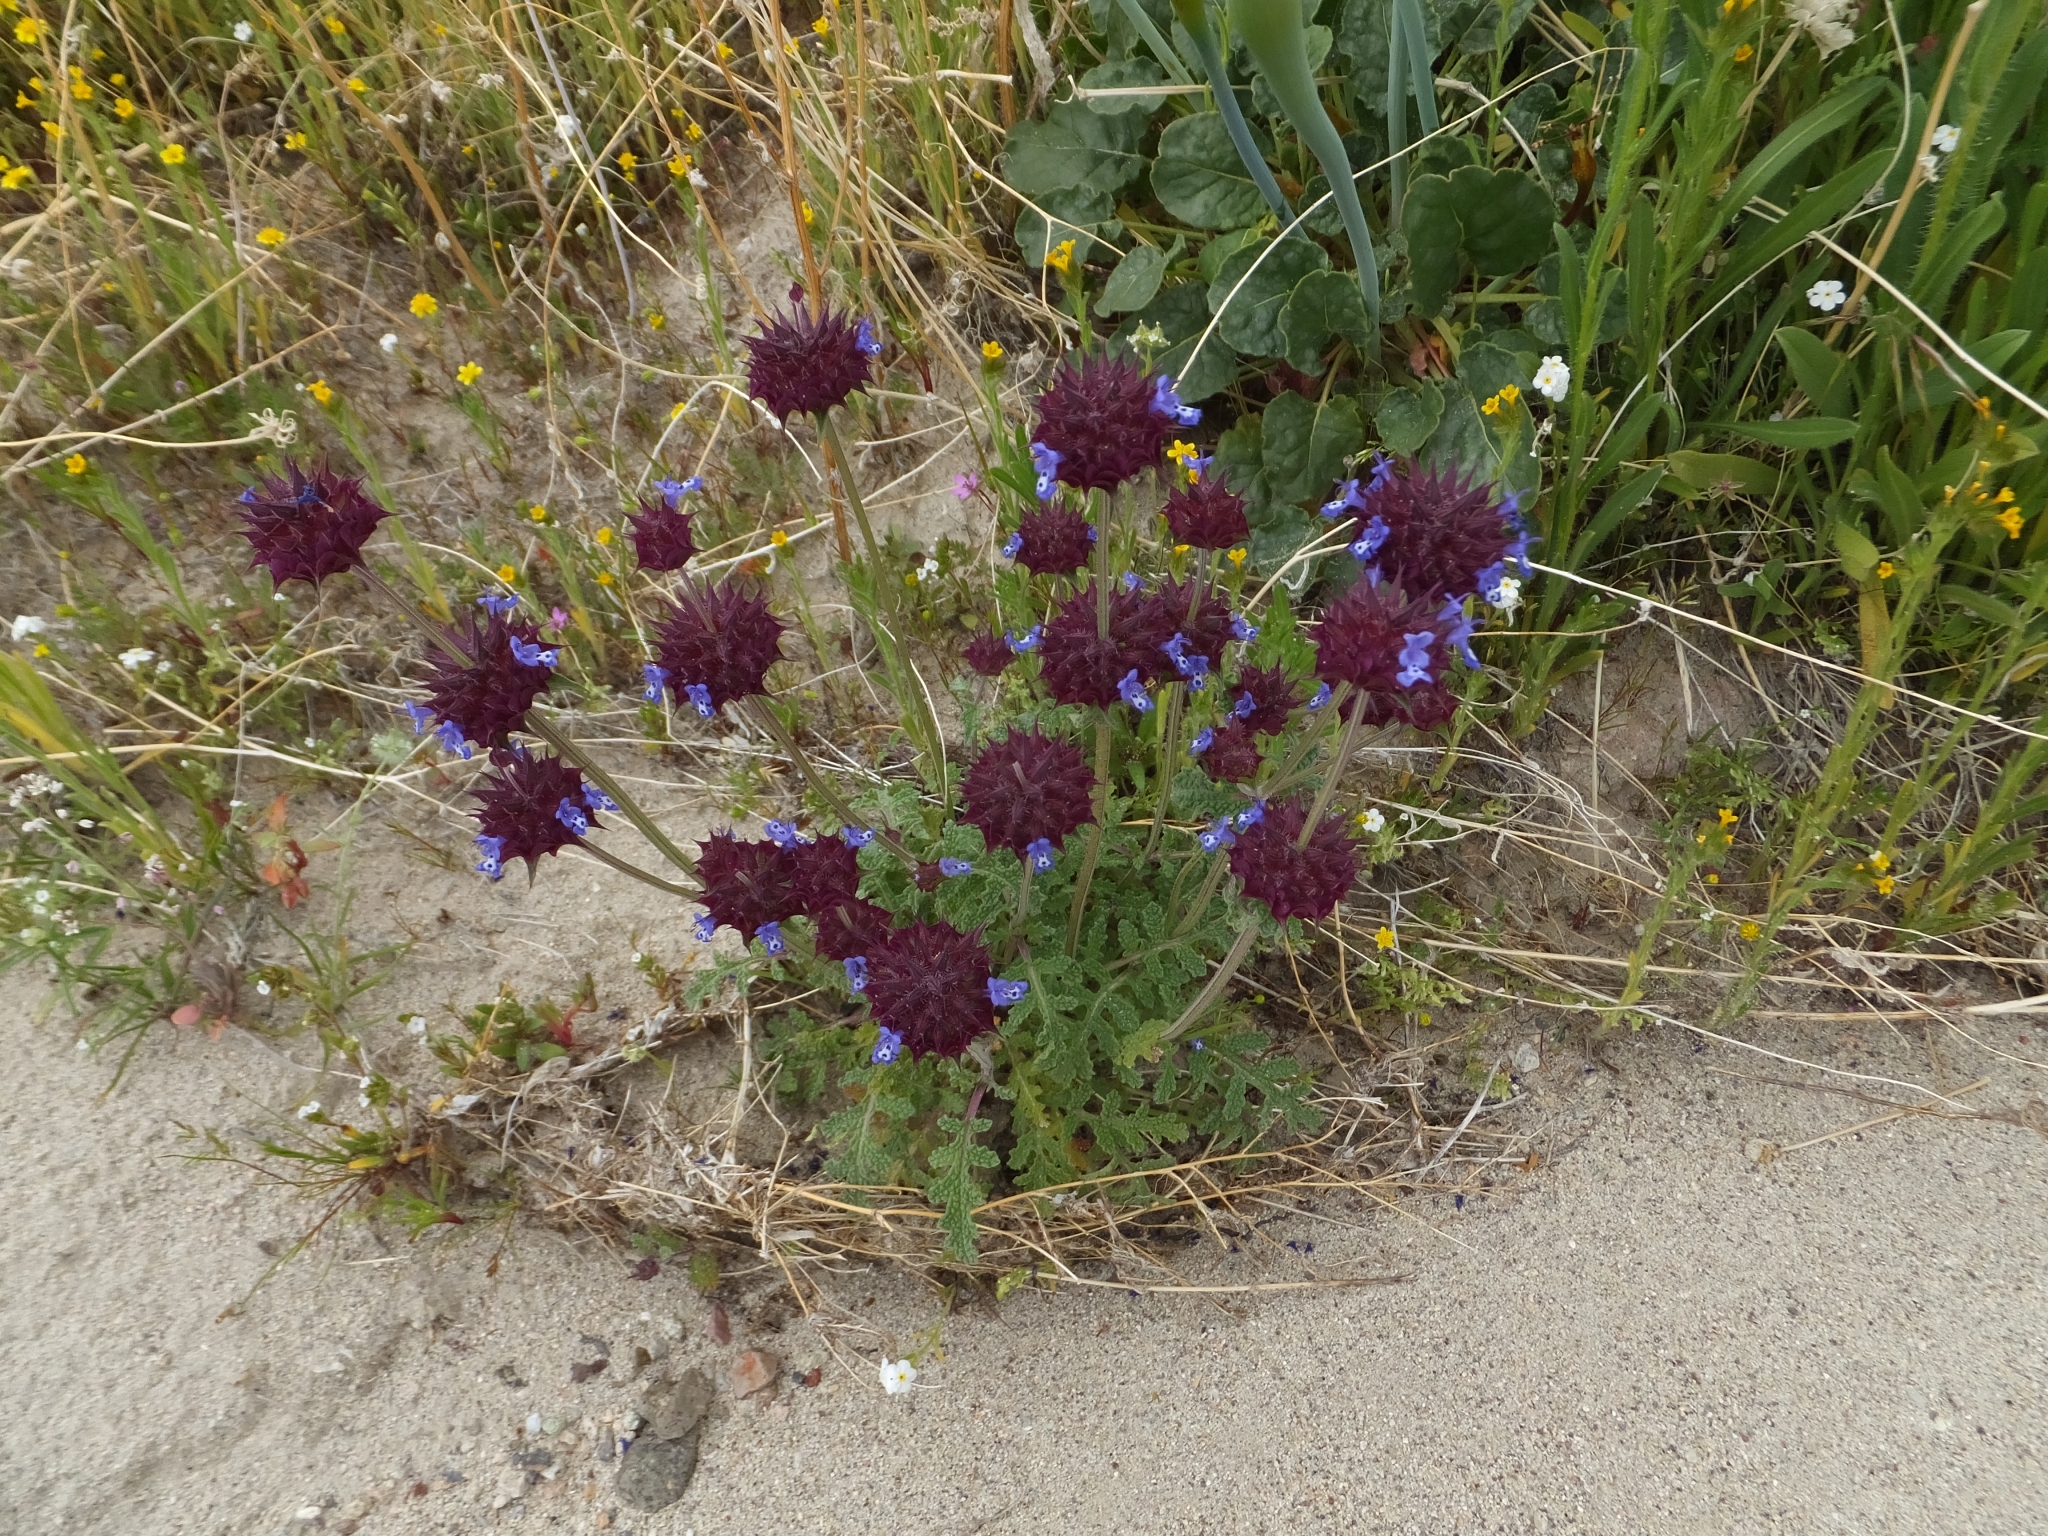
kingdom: Plantae
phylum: Tracheophyta
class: Magnoliopsida
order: Lamiales
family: Lamiaceae
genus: Salvia
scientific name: Salvia columbariae
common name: Chia
